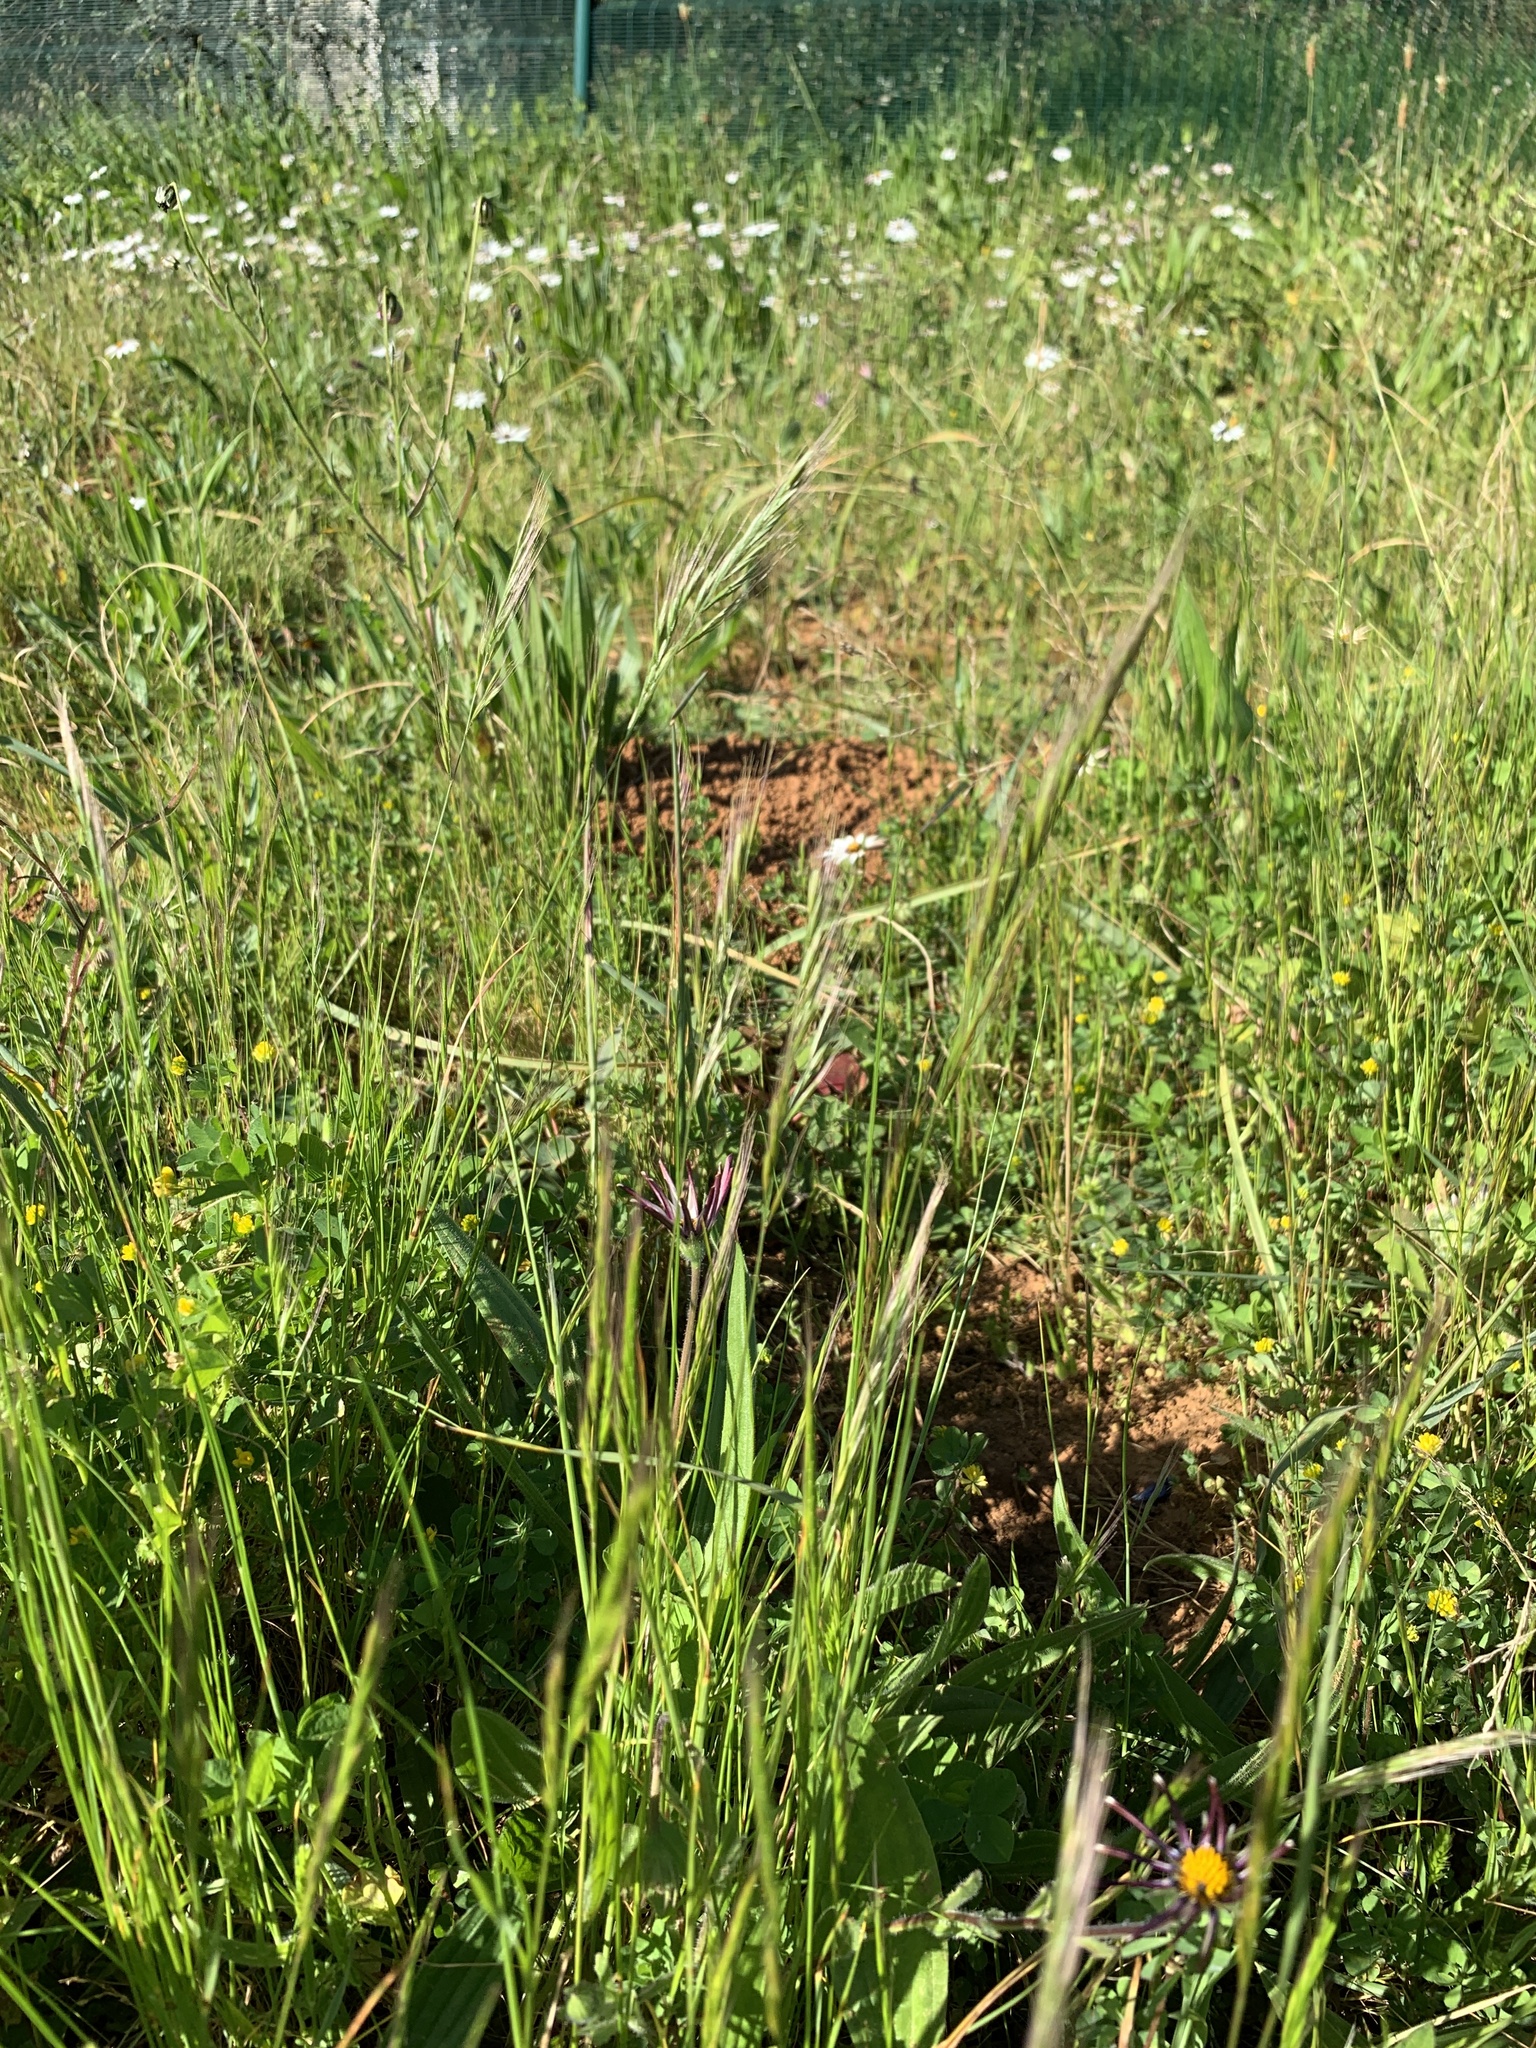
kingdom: Plantae
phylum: Tracheophyta
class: Liliopsida
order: Poales
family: Poaceae
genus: Festuca
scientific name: Festuca myuros
